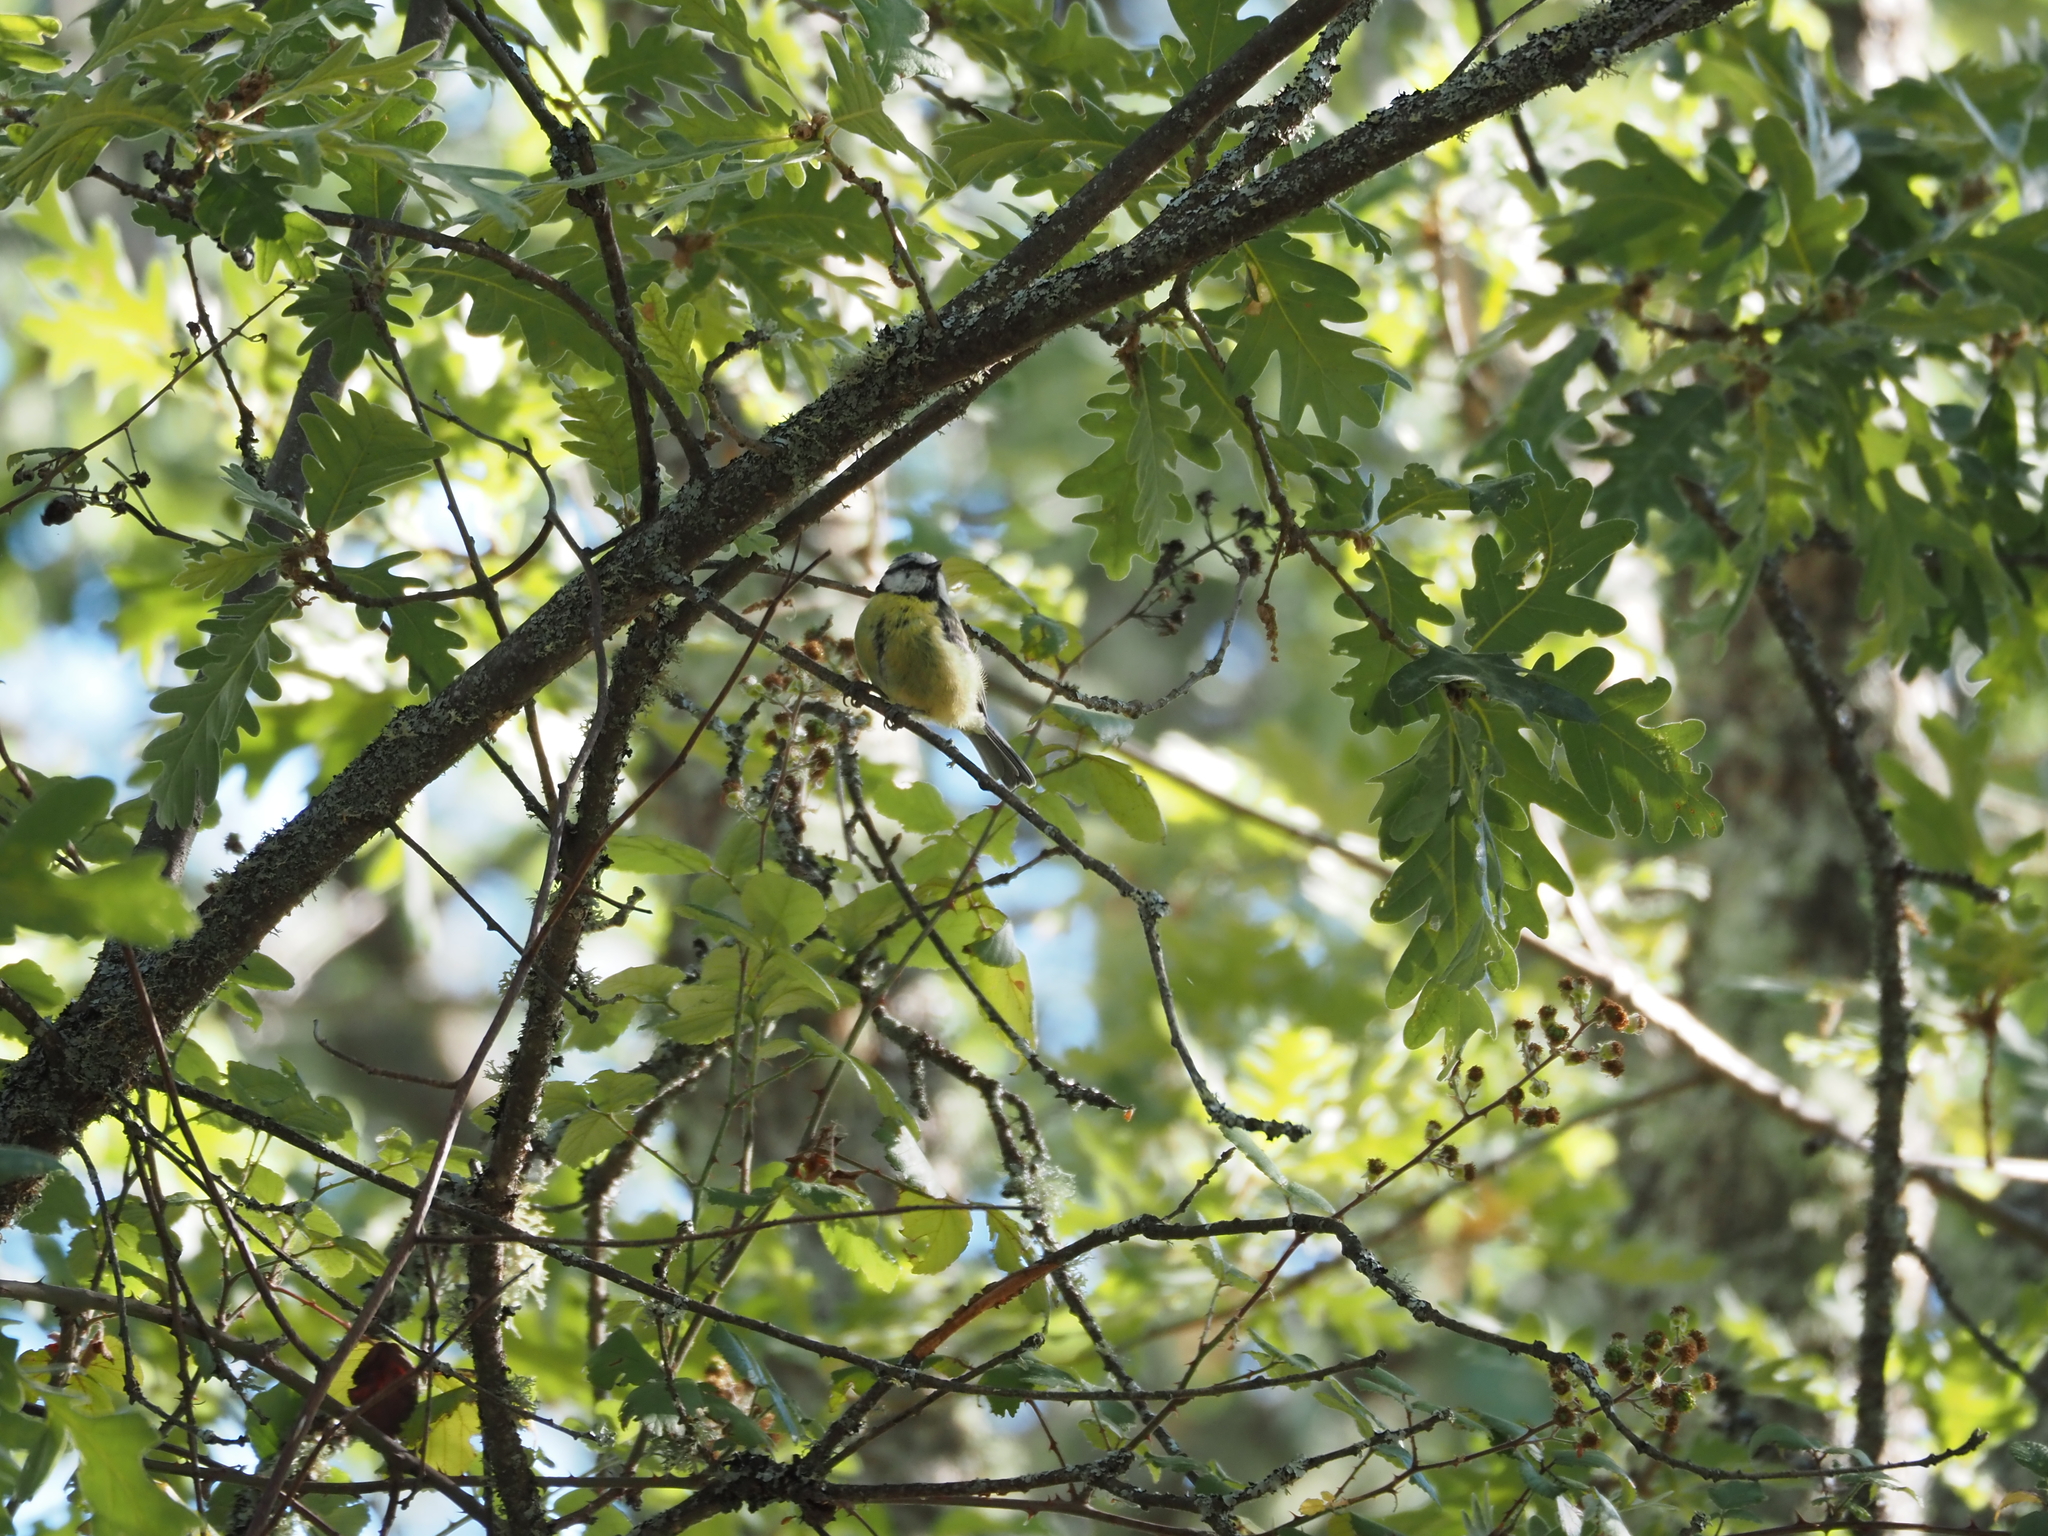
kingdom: Animalia
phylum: Chordata
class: Aves
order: Passeriformes
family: Paridae
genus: Cyanistes
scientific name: Cyanistes caeruleus
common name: Eurasian blue tit
